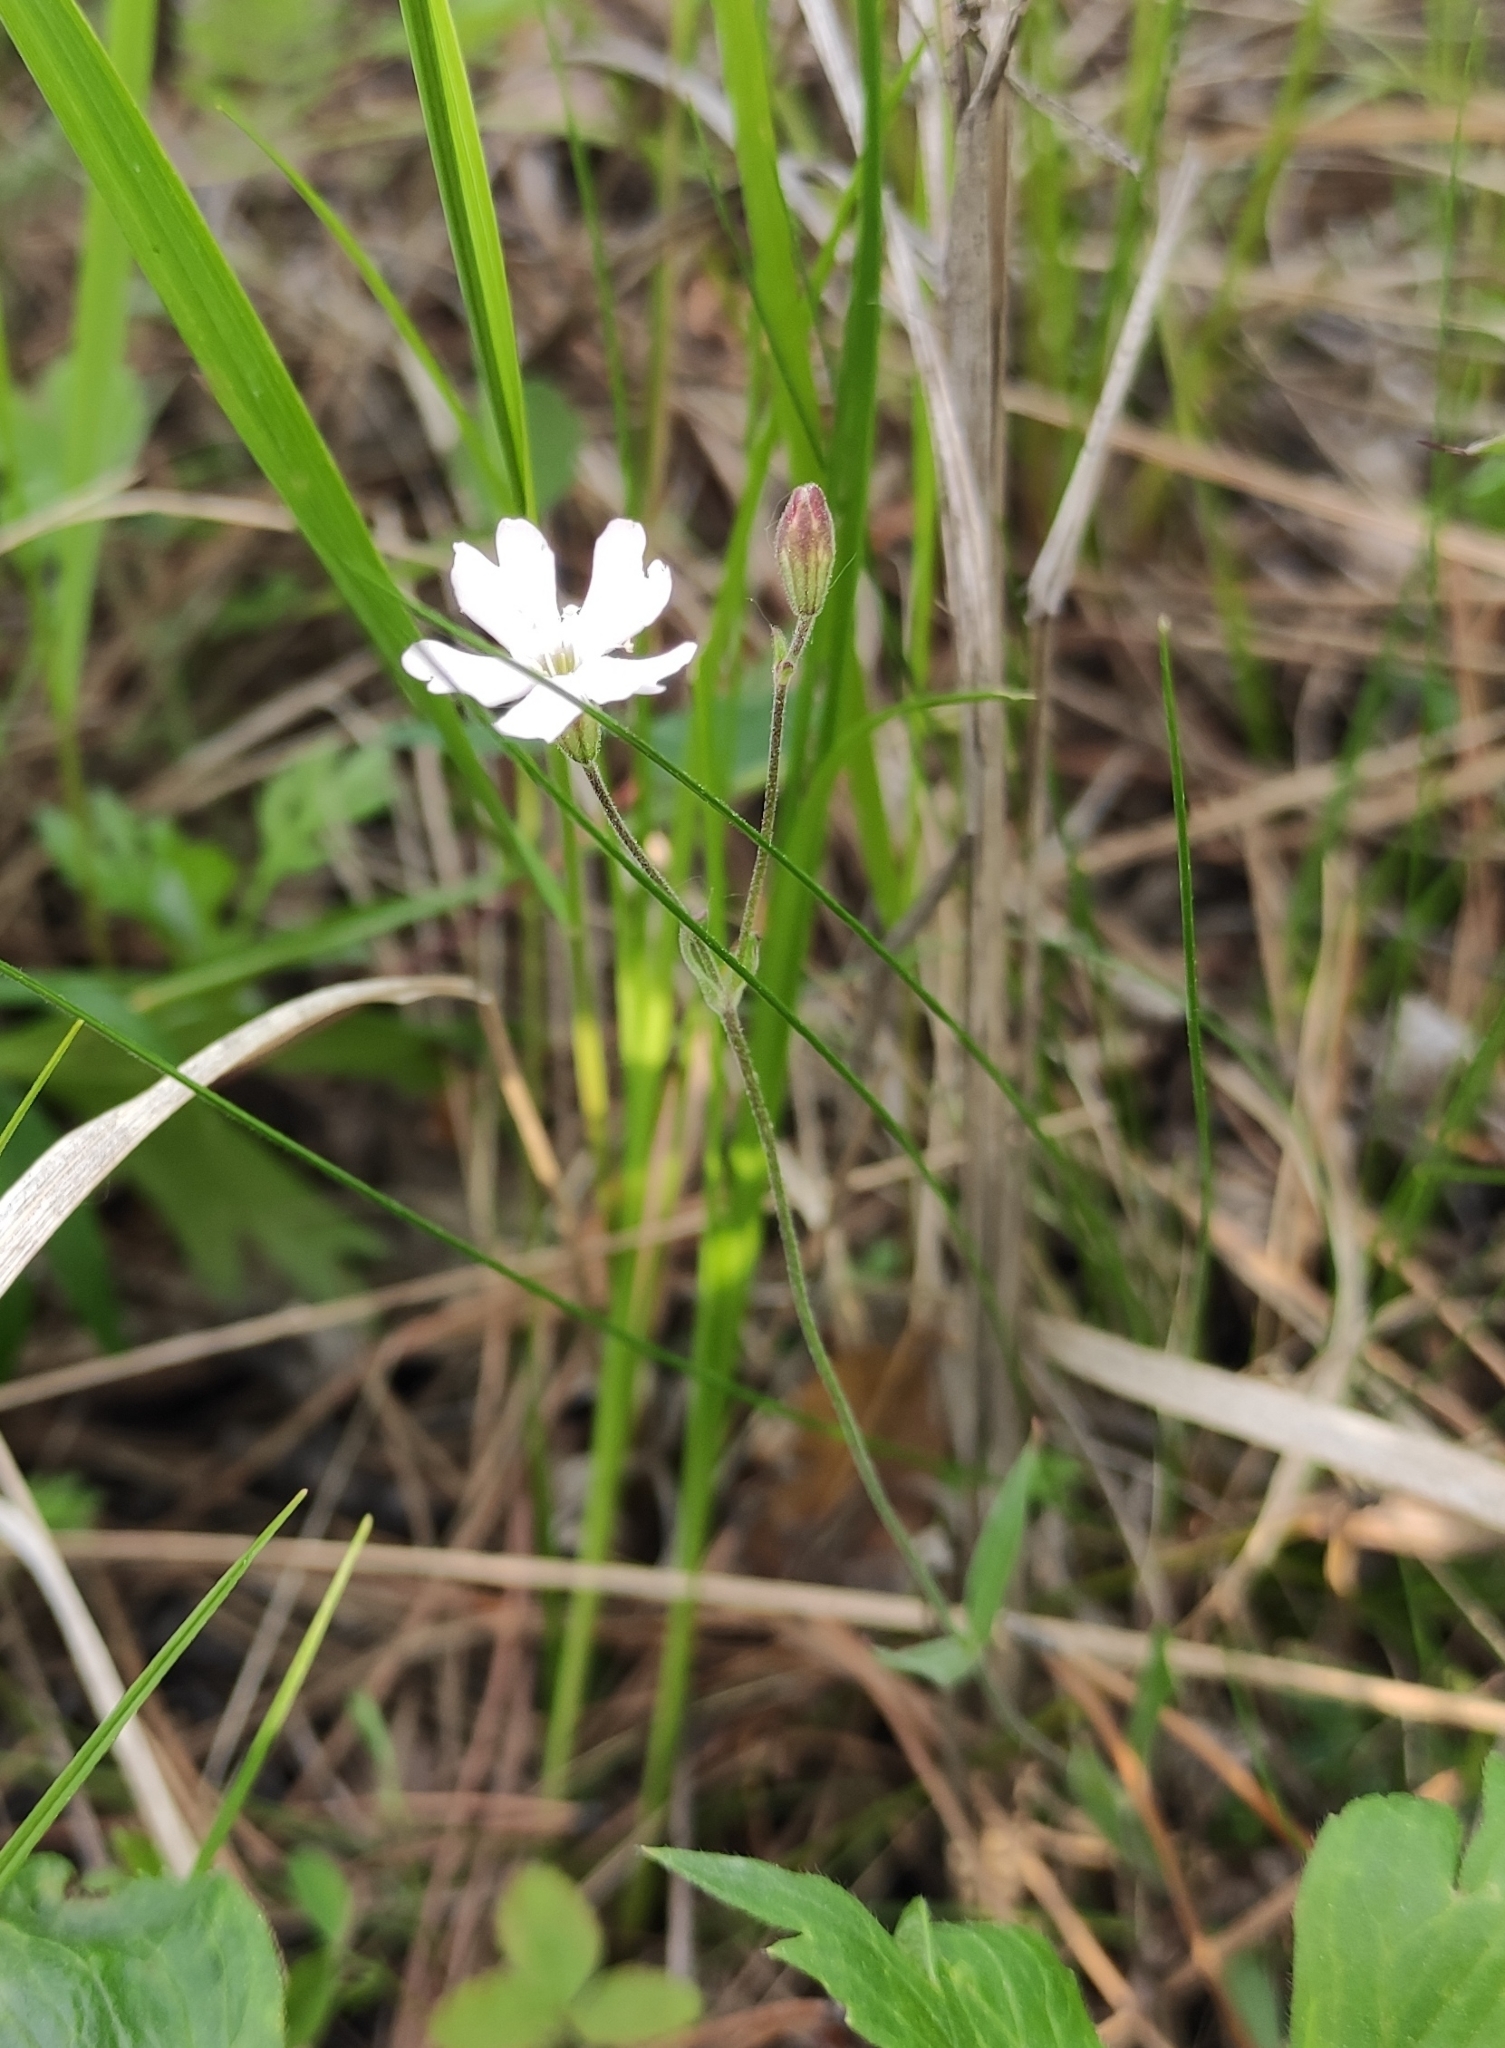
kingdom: Plantae
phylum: Tracheophyta
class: Magnoliopsida
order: Caryophyllales
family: Caryophyllaceae
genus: Silene
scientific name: Silene orientalimongolica
